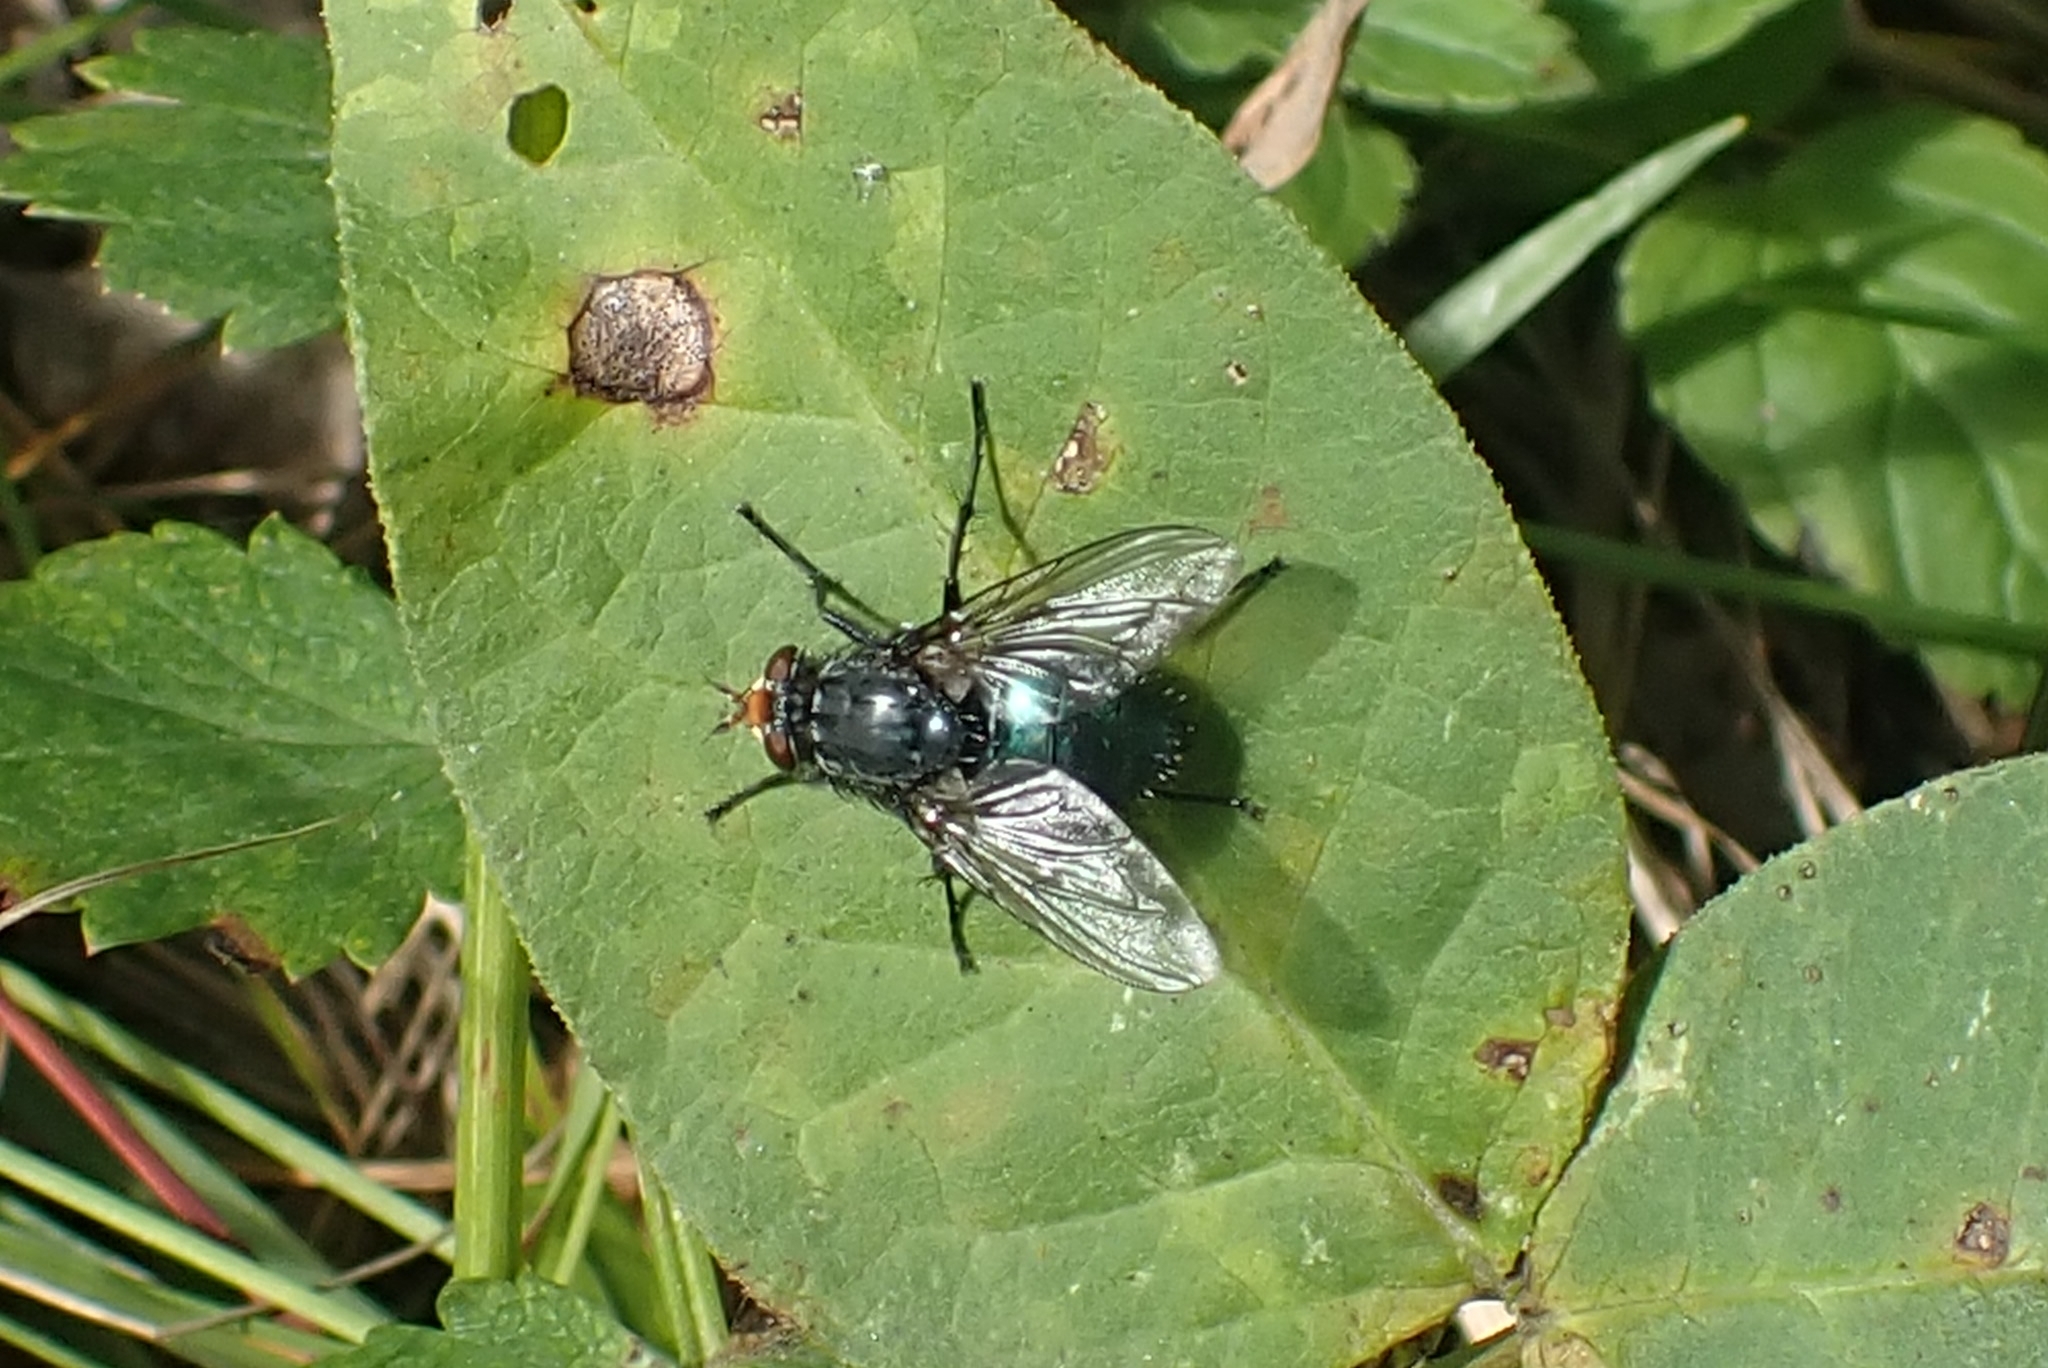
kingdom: Animalia
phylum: Arthropoda
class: Insecta
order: Diptera
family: Calliphoridae
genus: Cynomya
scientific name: Cynomya mortuorum
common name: Bluebottle blow fly
